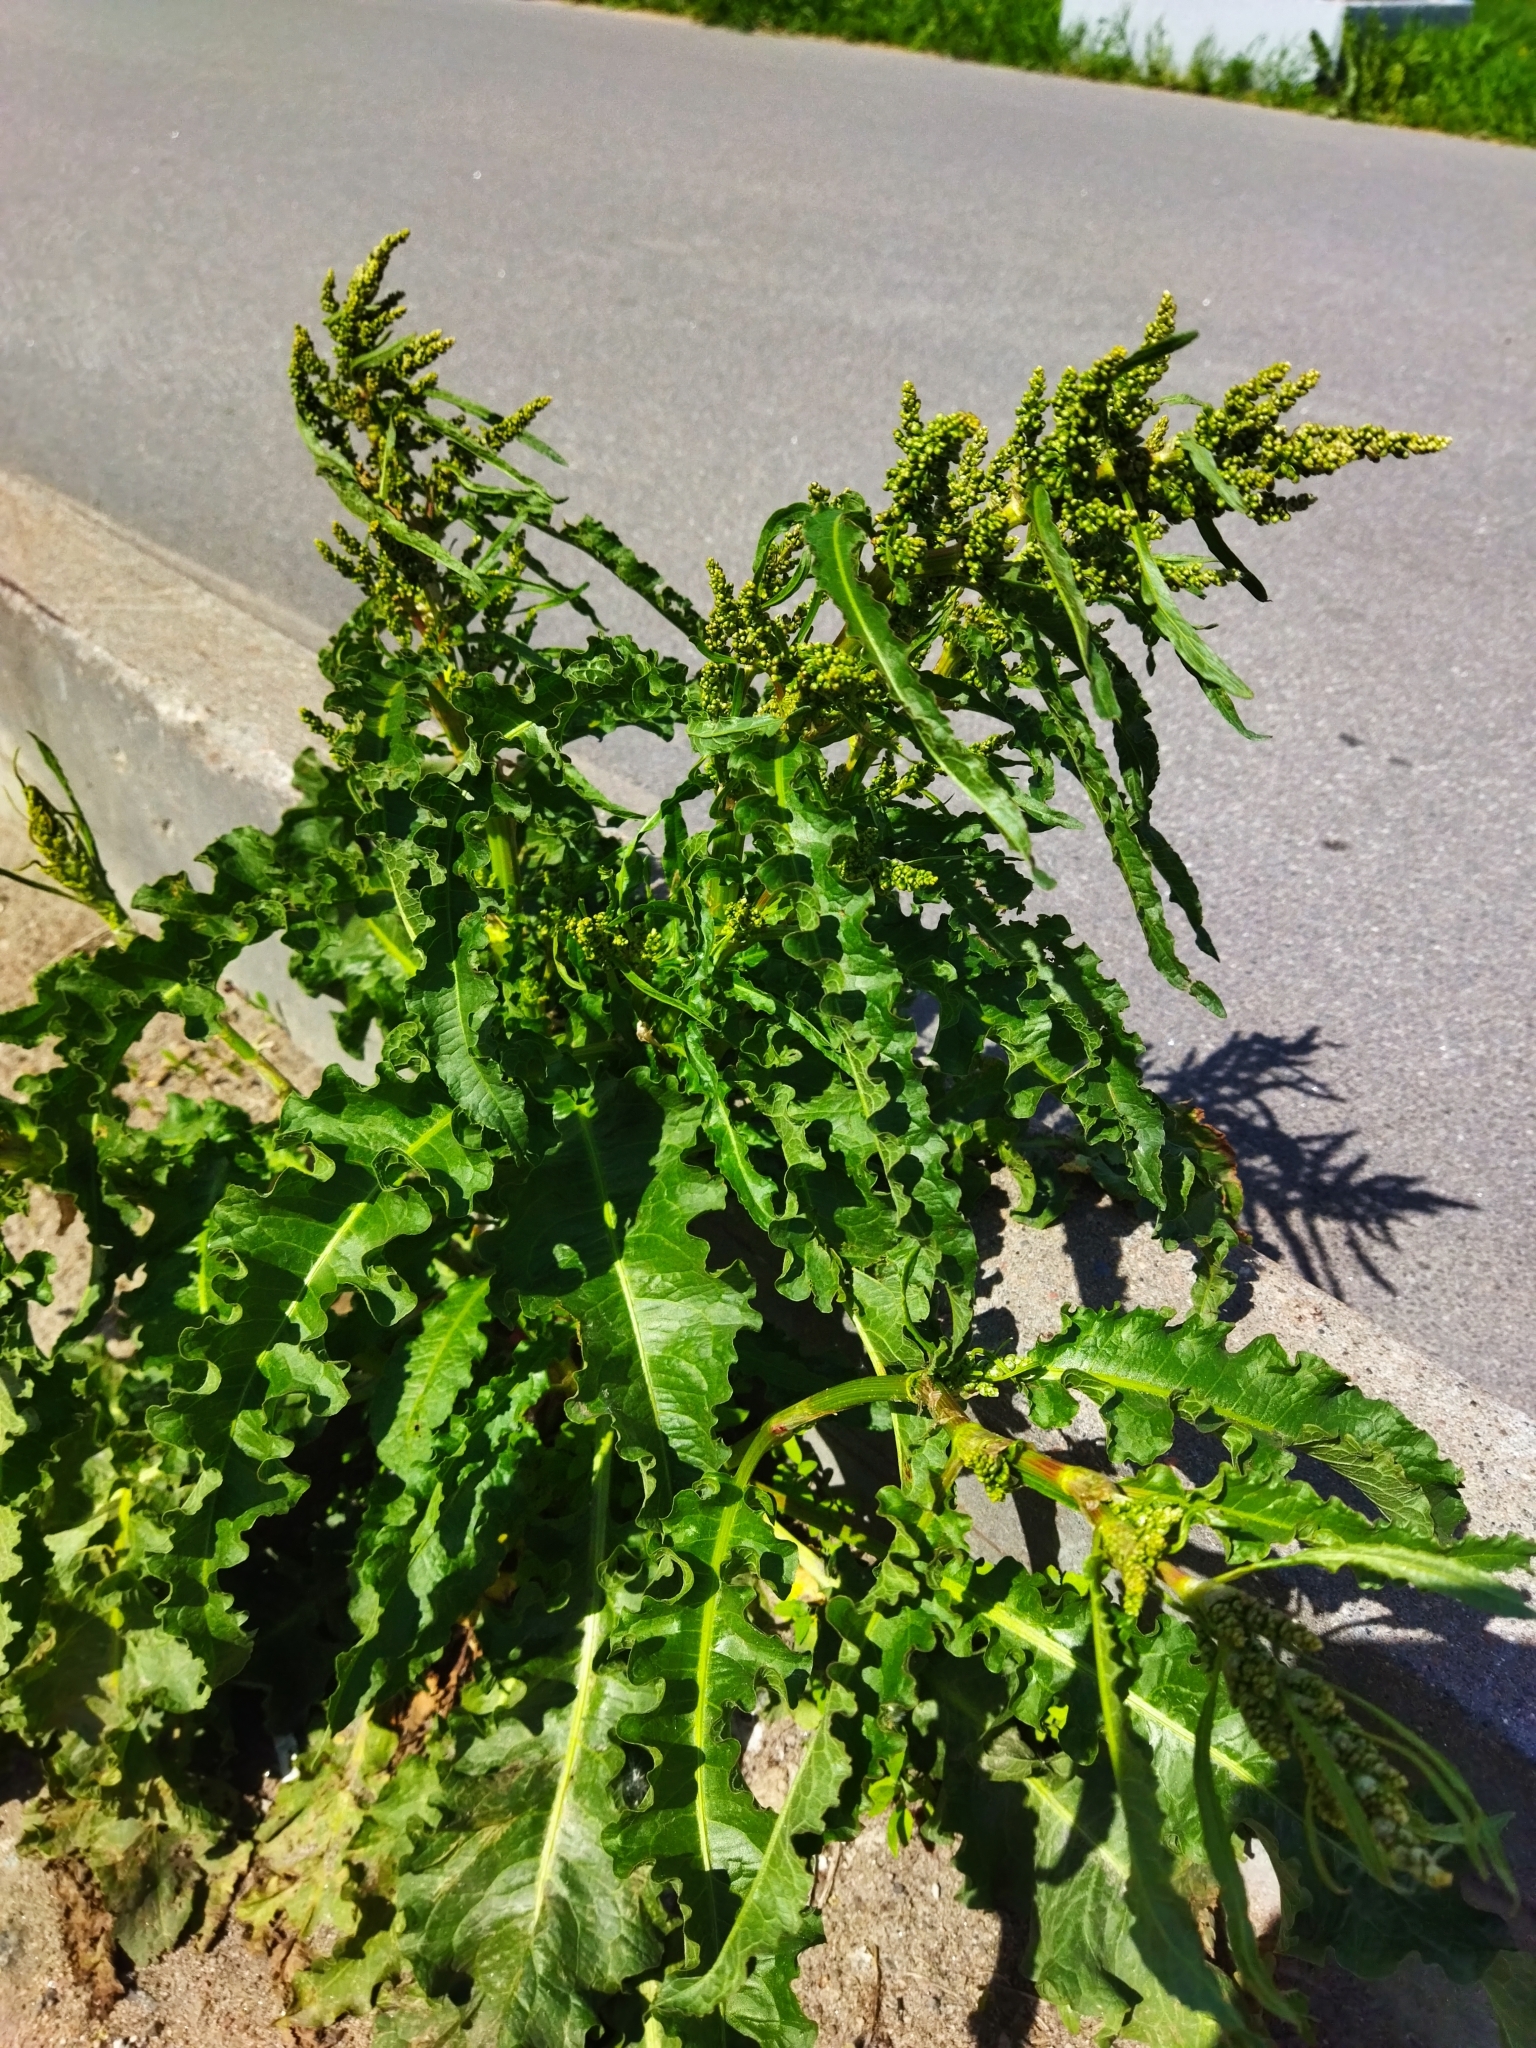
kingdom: Plantae
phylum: Tracheophyta
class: Magnoliopsida
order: Caryophyllales
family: Polygonaceae
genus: Rumex
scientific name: Rumex crispus
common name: Curled dock
